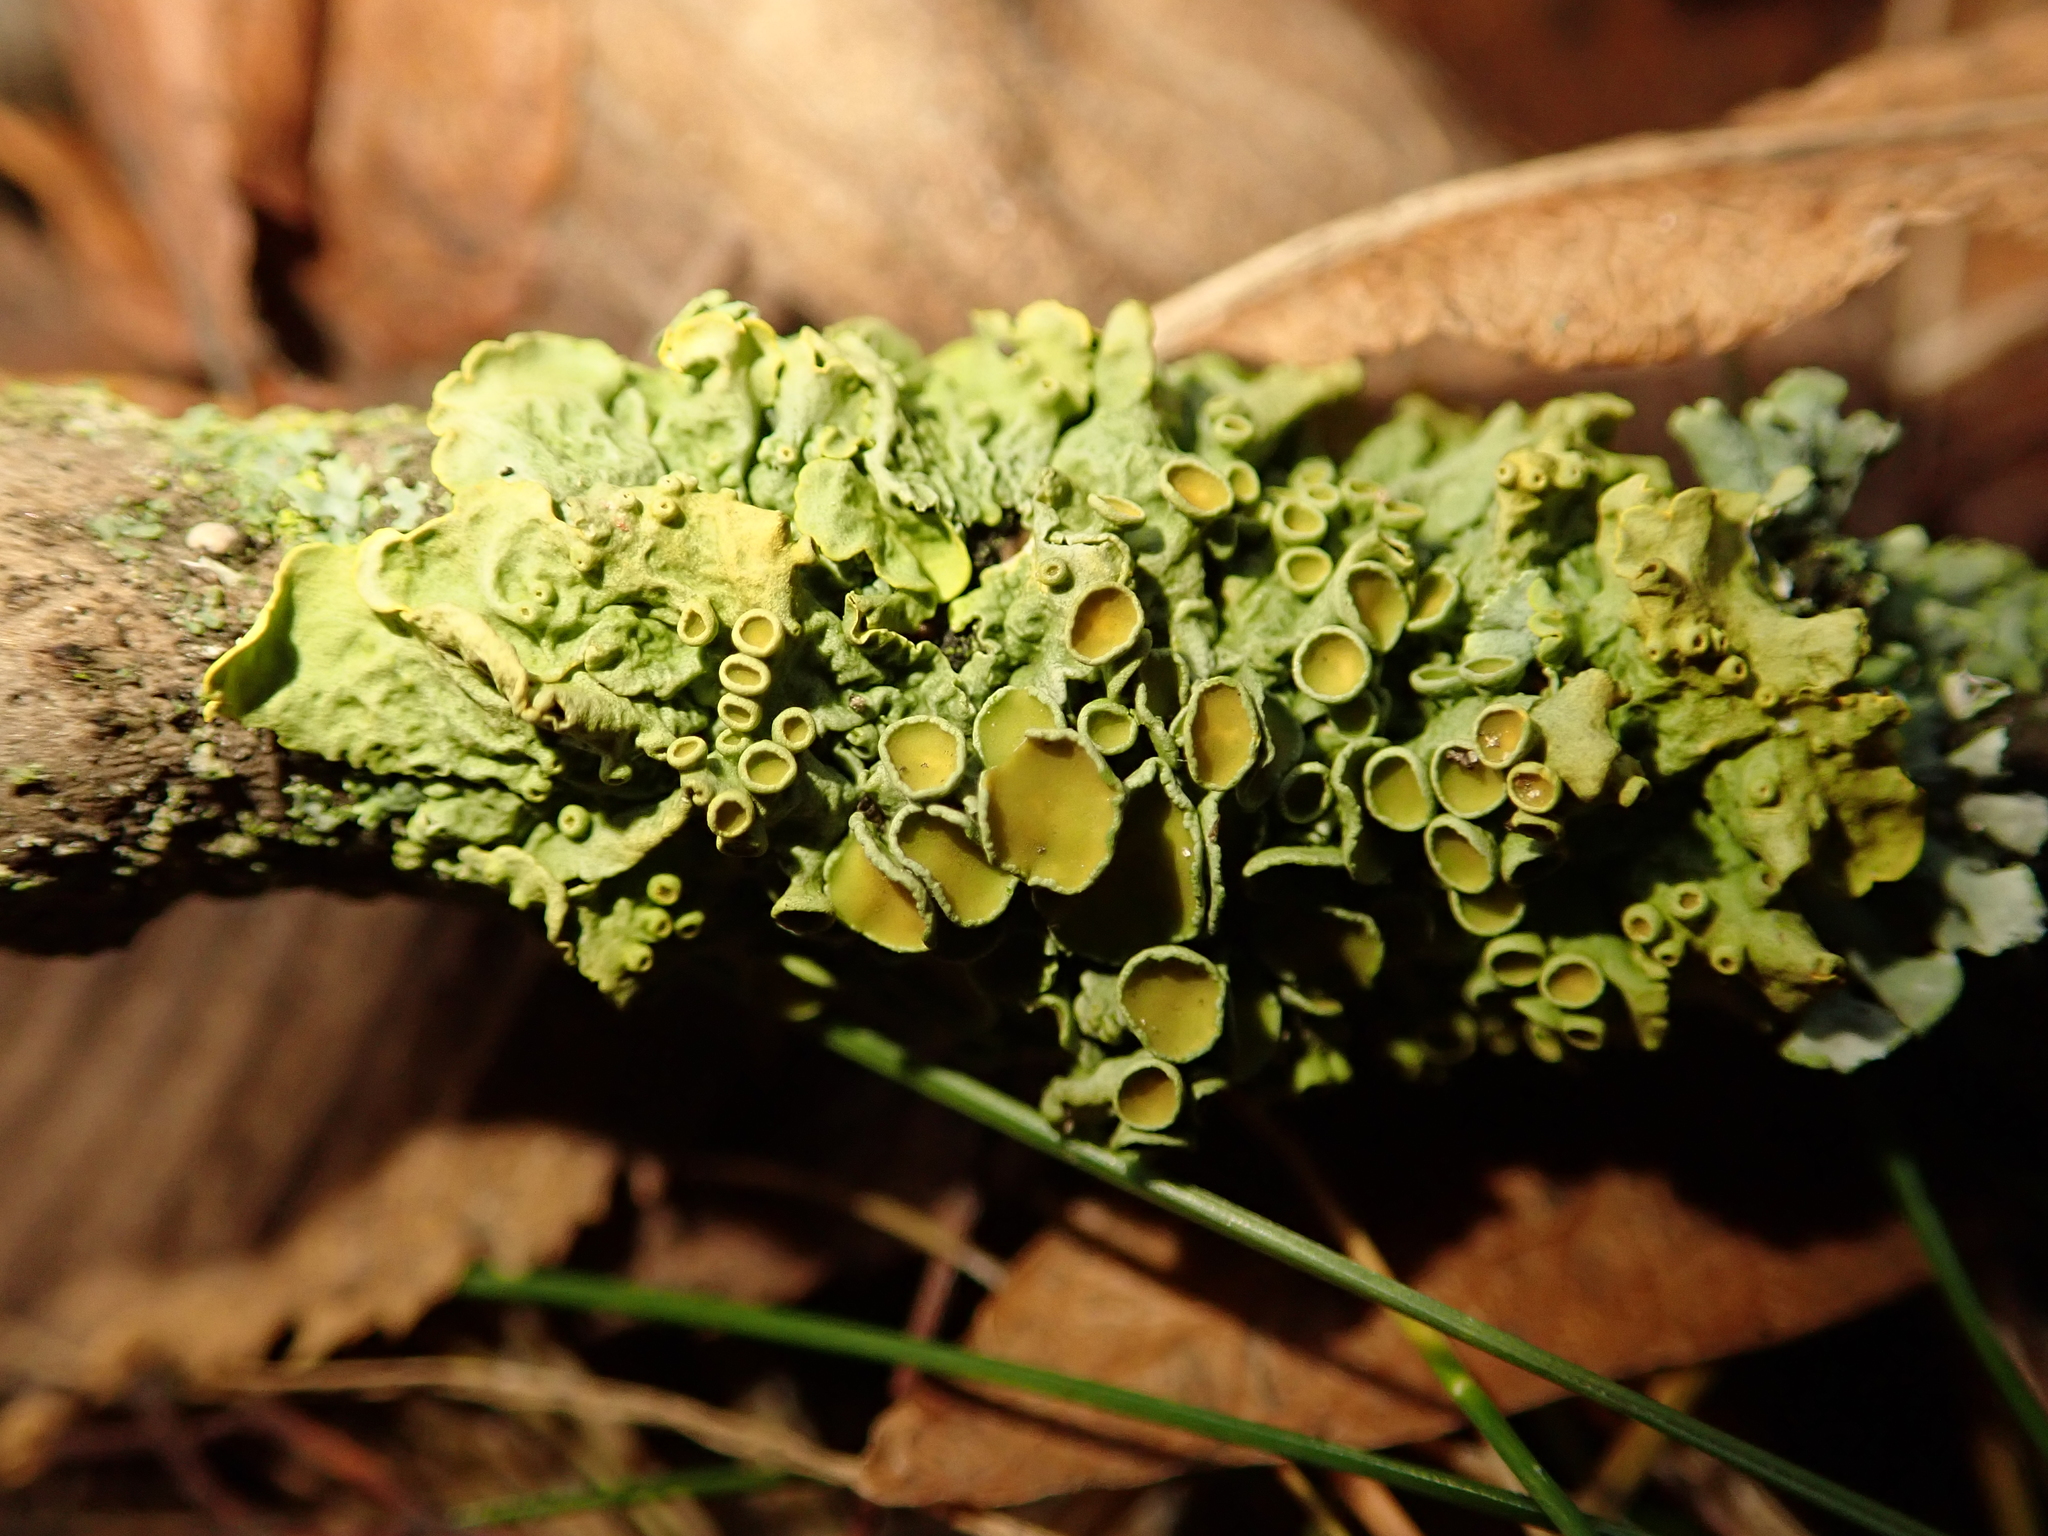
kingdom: Fungi
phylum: Ascomycota
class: Lecanoromycetes
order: Teloschistales
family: Teloschistaceae
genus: Xanthoria
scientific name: Xanthoria parietina
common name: Common orange lichen
